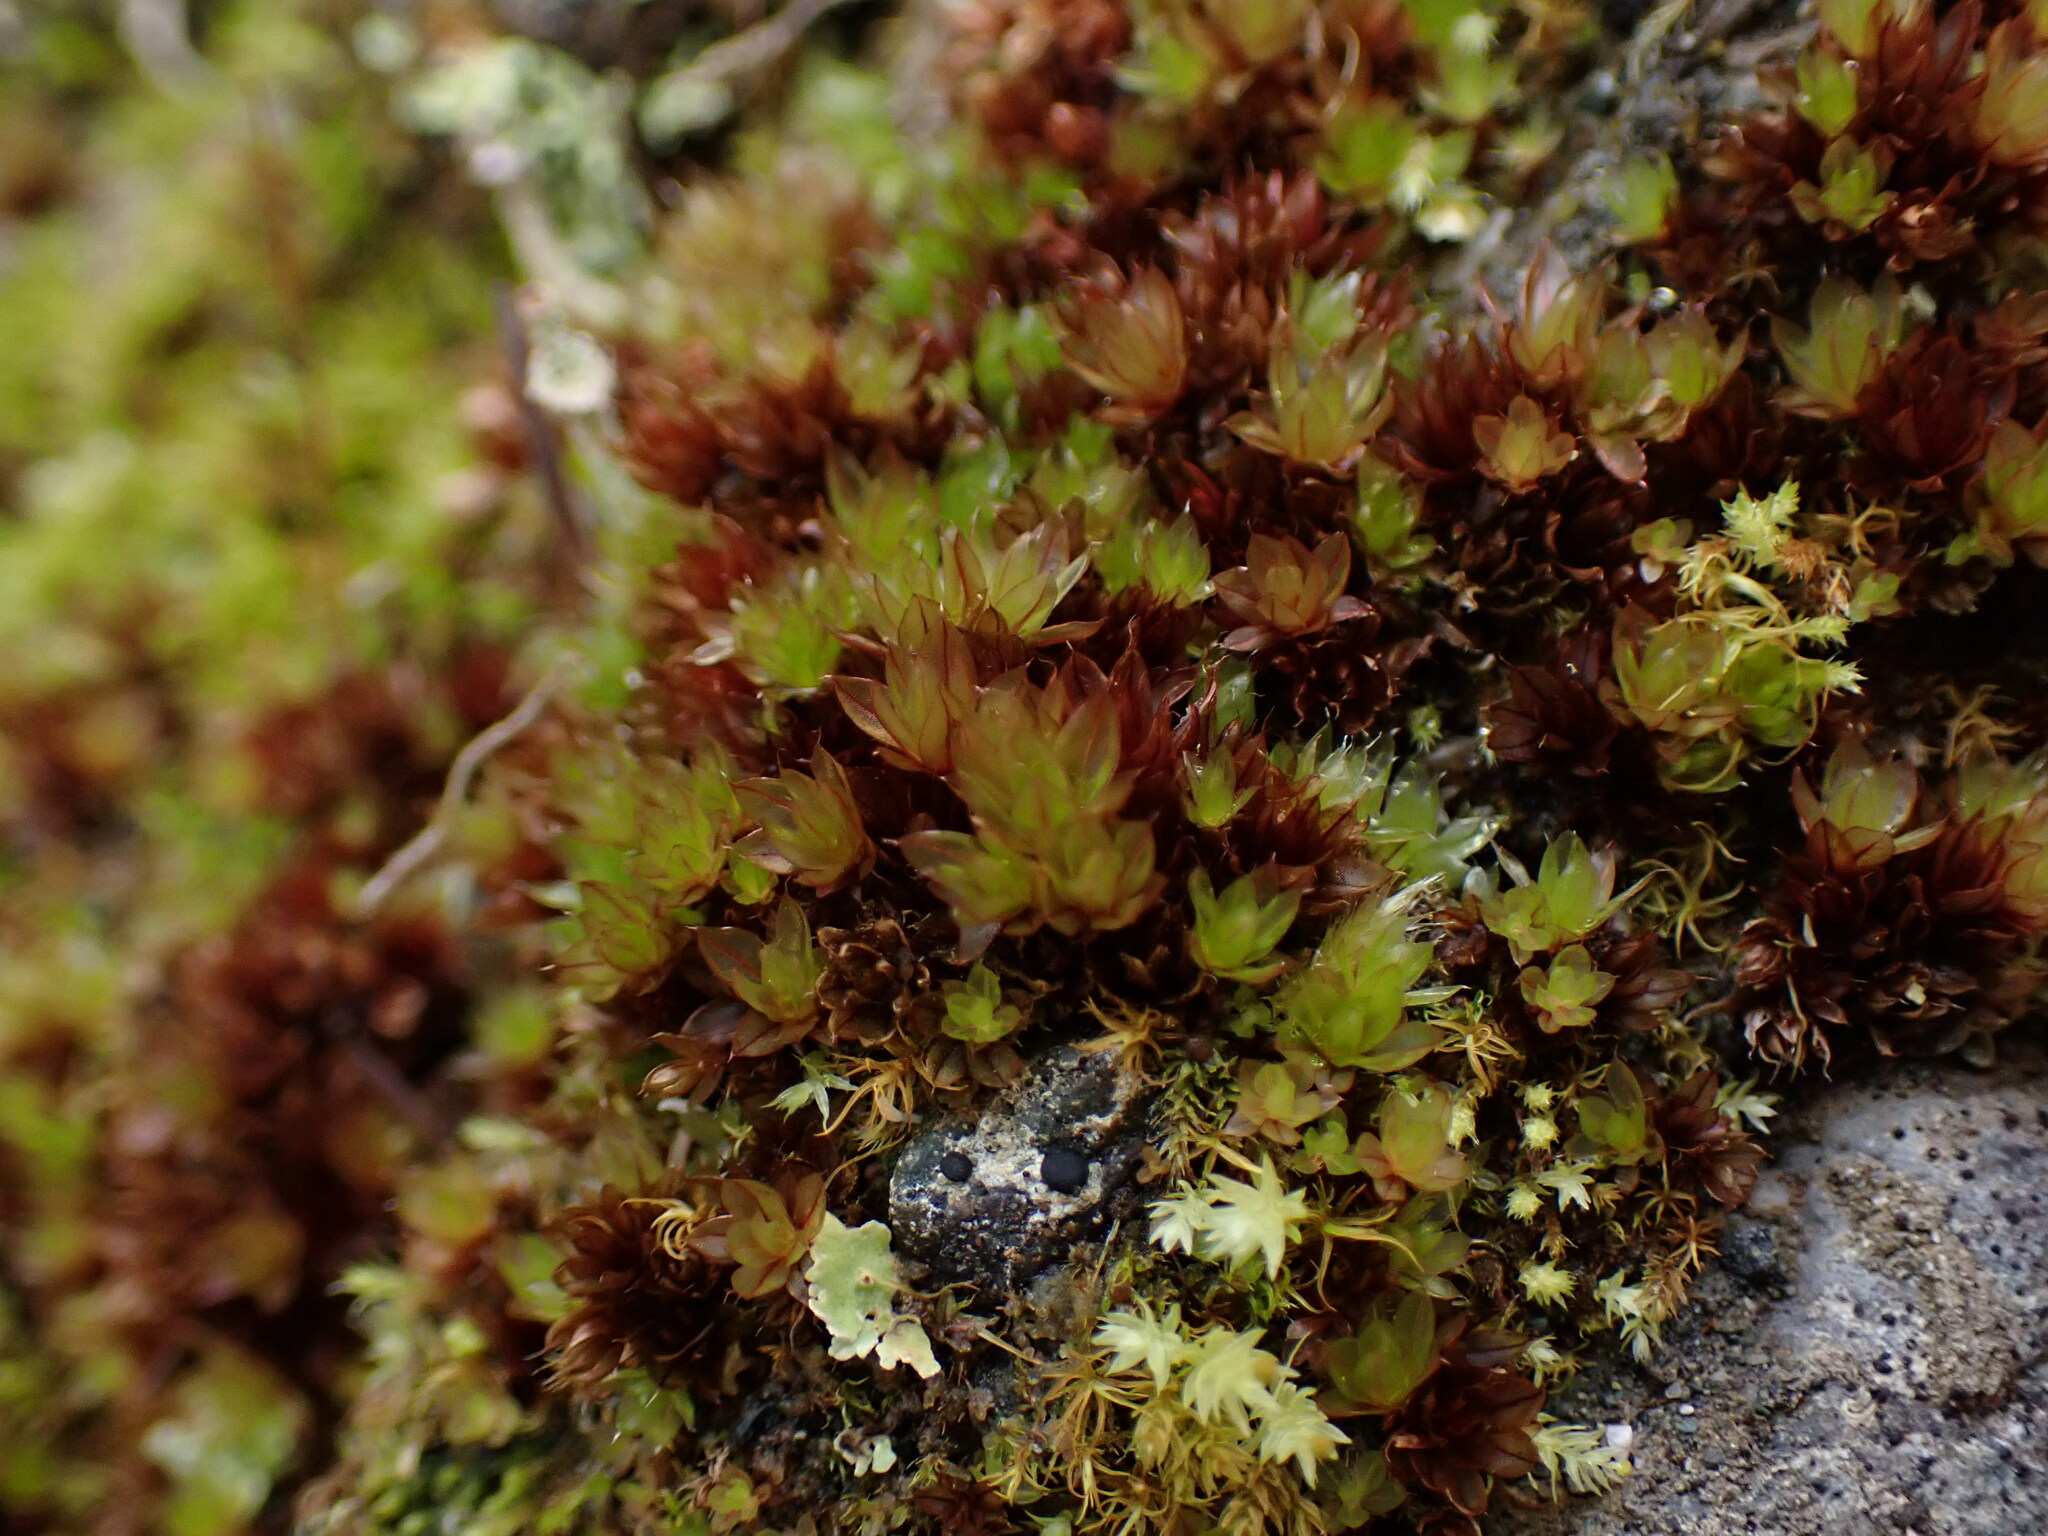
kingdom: Plantae
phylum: Bryophyta
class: Bryopsida
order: Bryales
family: Bryaceae
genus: Rosulabryum
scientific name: Rosulabryum capillare
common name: Capillary thread-moss
